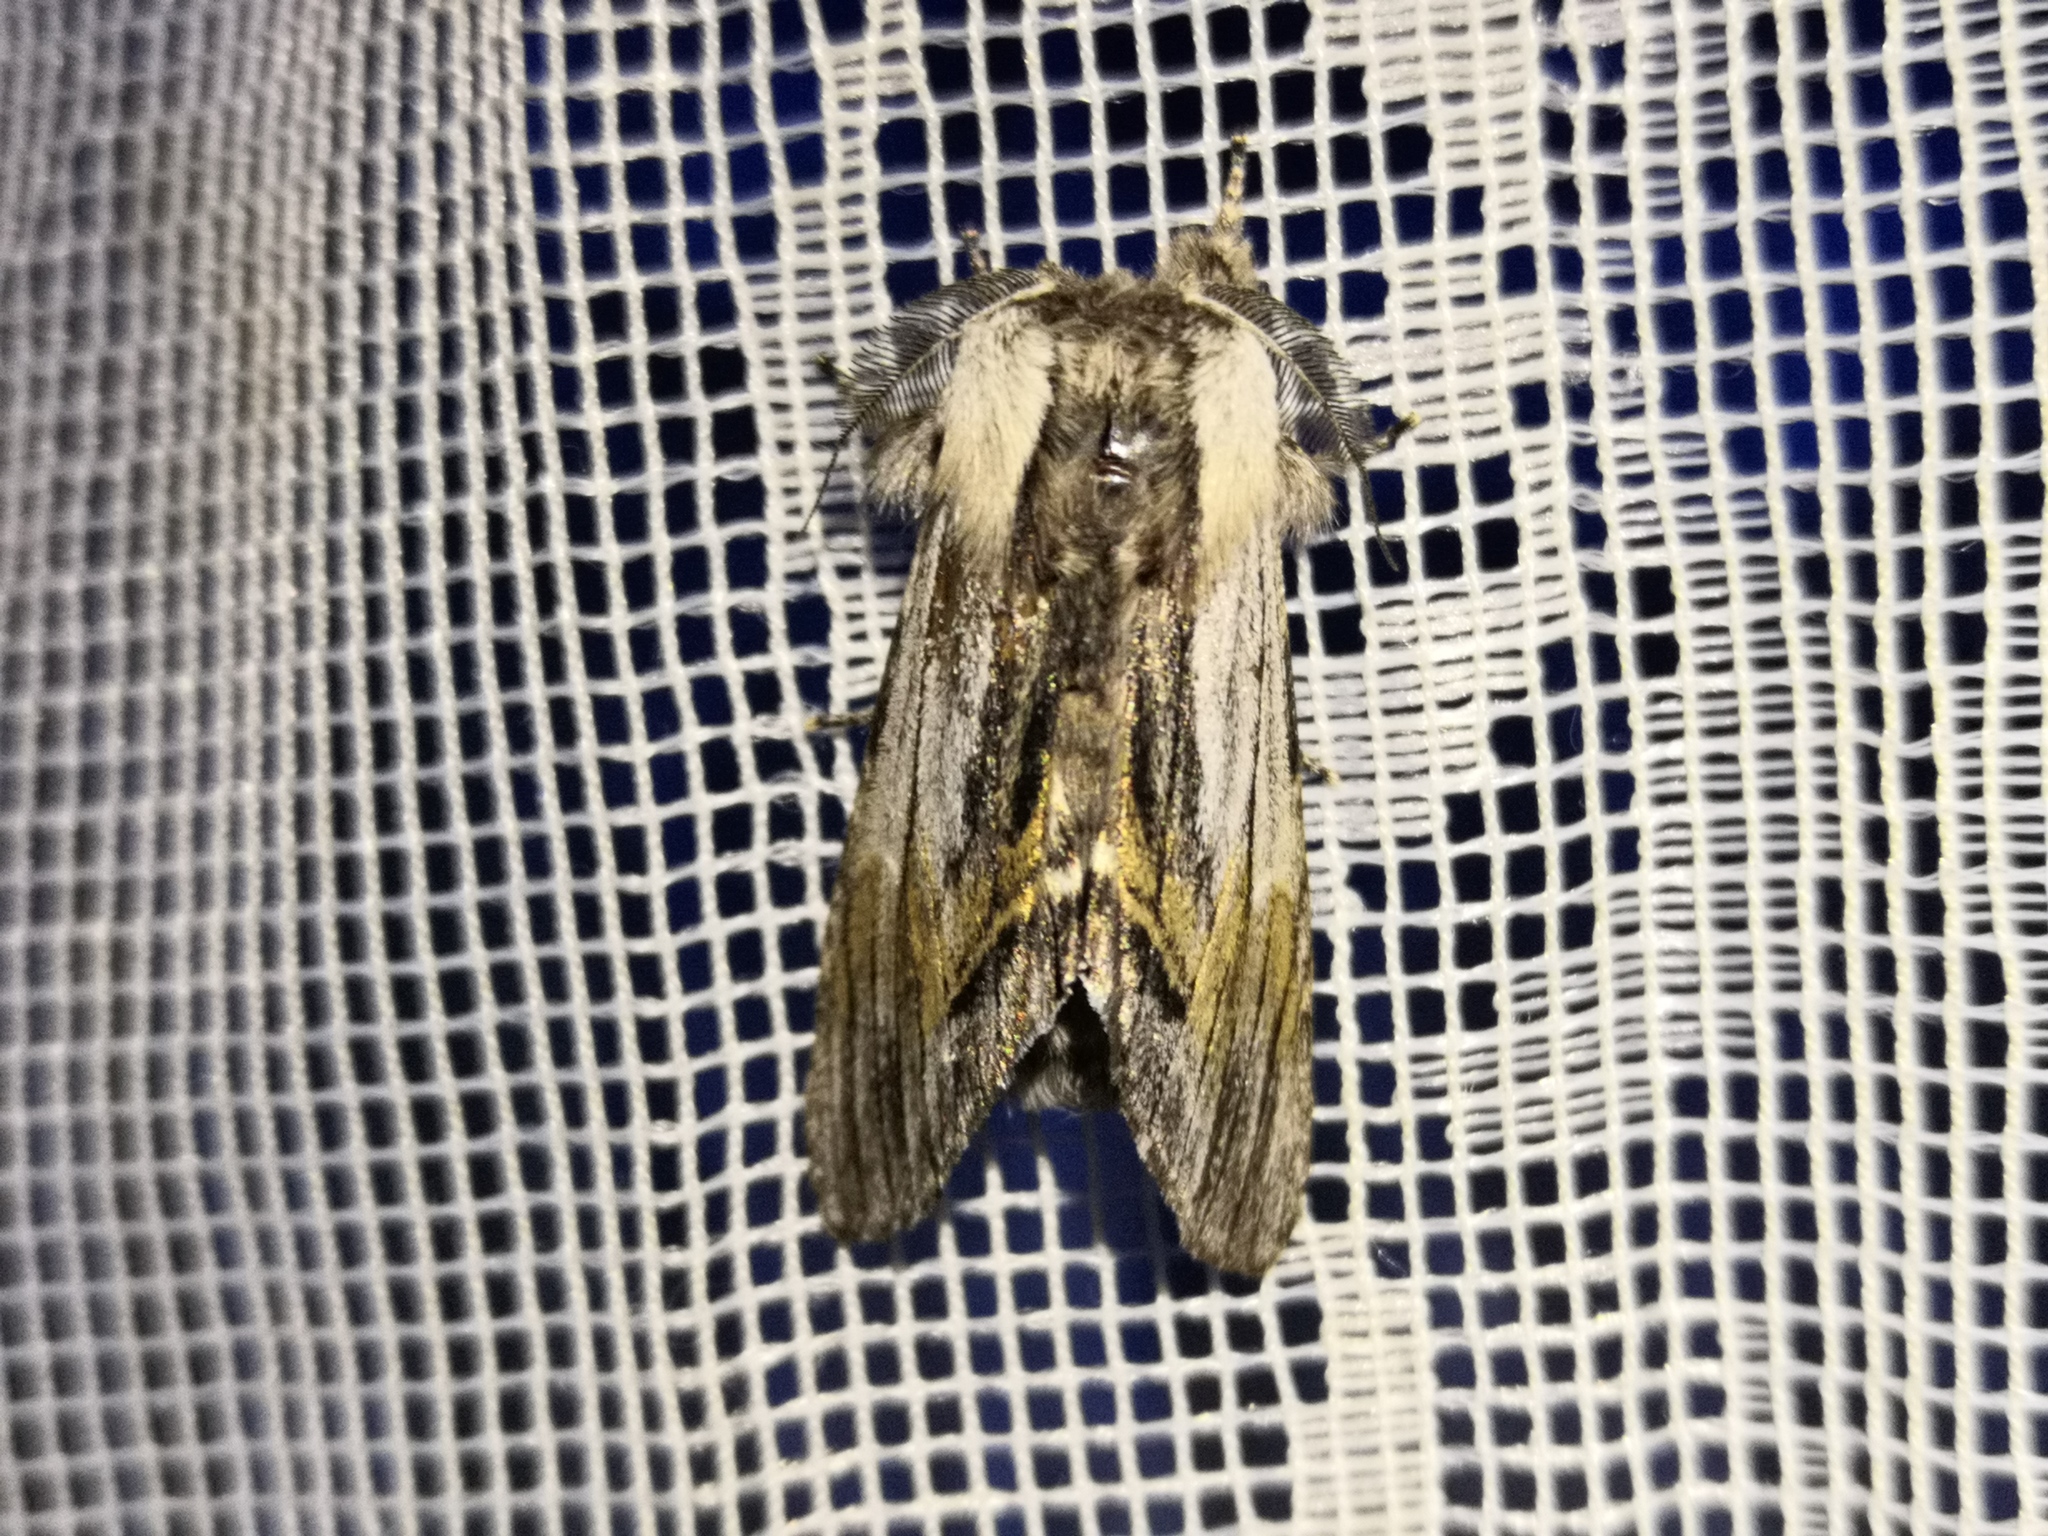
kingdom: Animalia
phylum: Arthropoda
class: Insecta
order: Lepidoptera
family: Notodontidae
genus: Harpyia
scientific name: Harpyia milhauseri
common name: Tawny prominent
